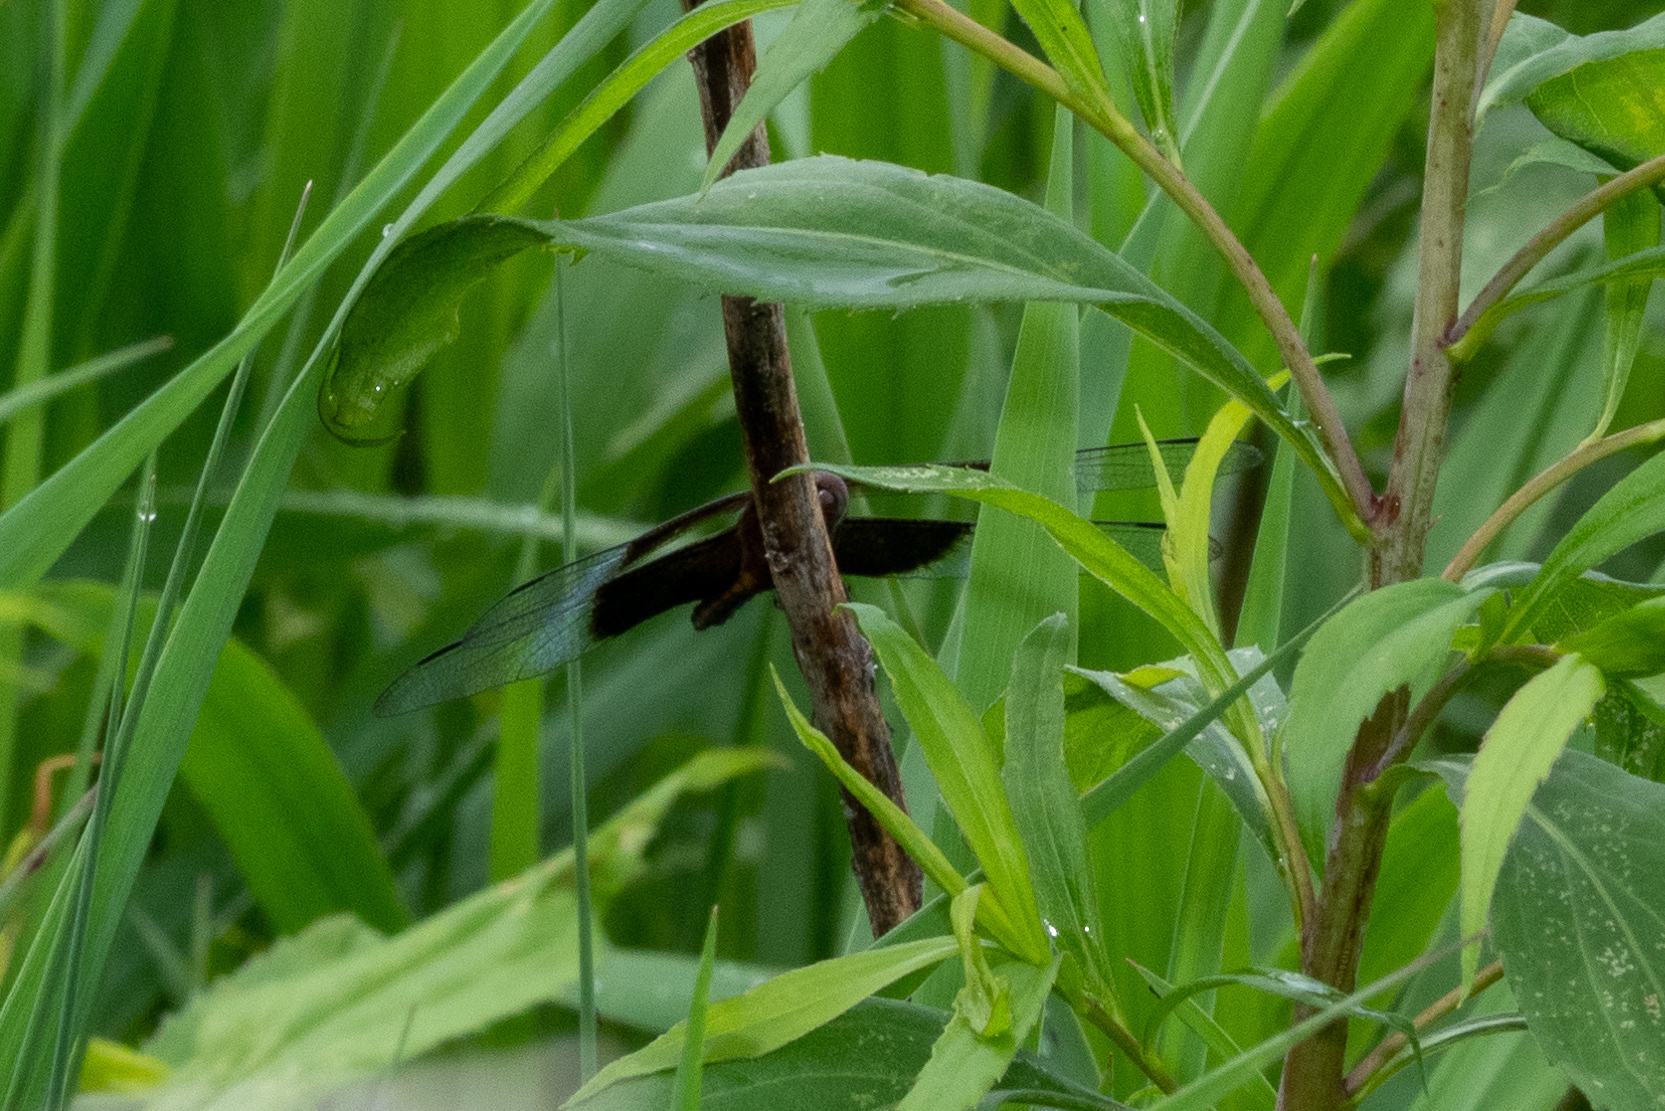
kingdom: Animalia
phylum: Arthropoda
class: Insecta
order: Odonata
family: Libellulidae
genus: Libellula
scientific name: Libellula luctuosa
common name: Widow skimmer
